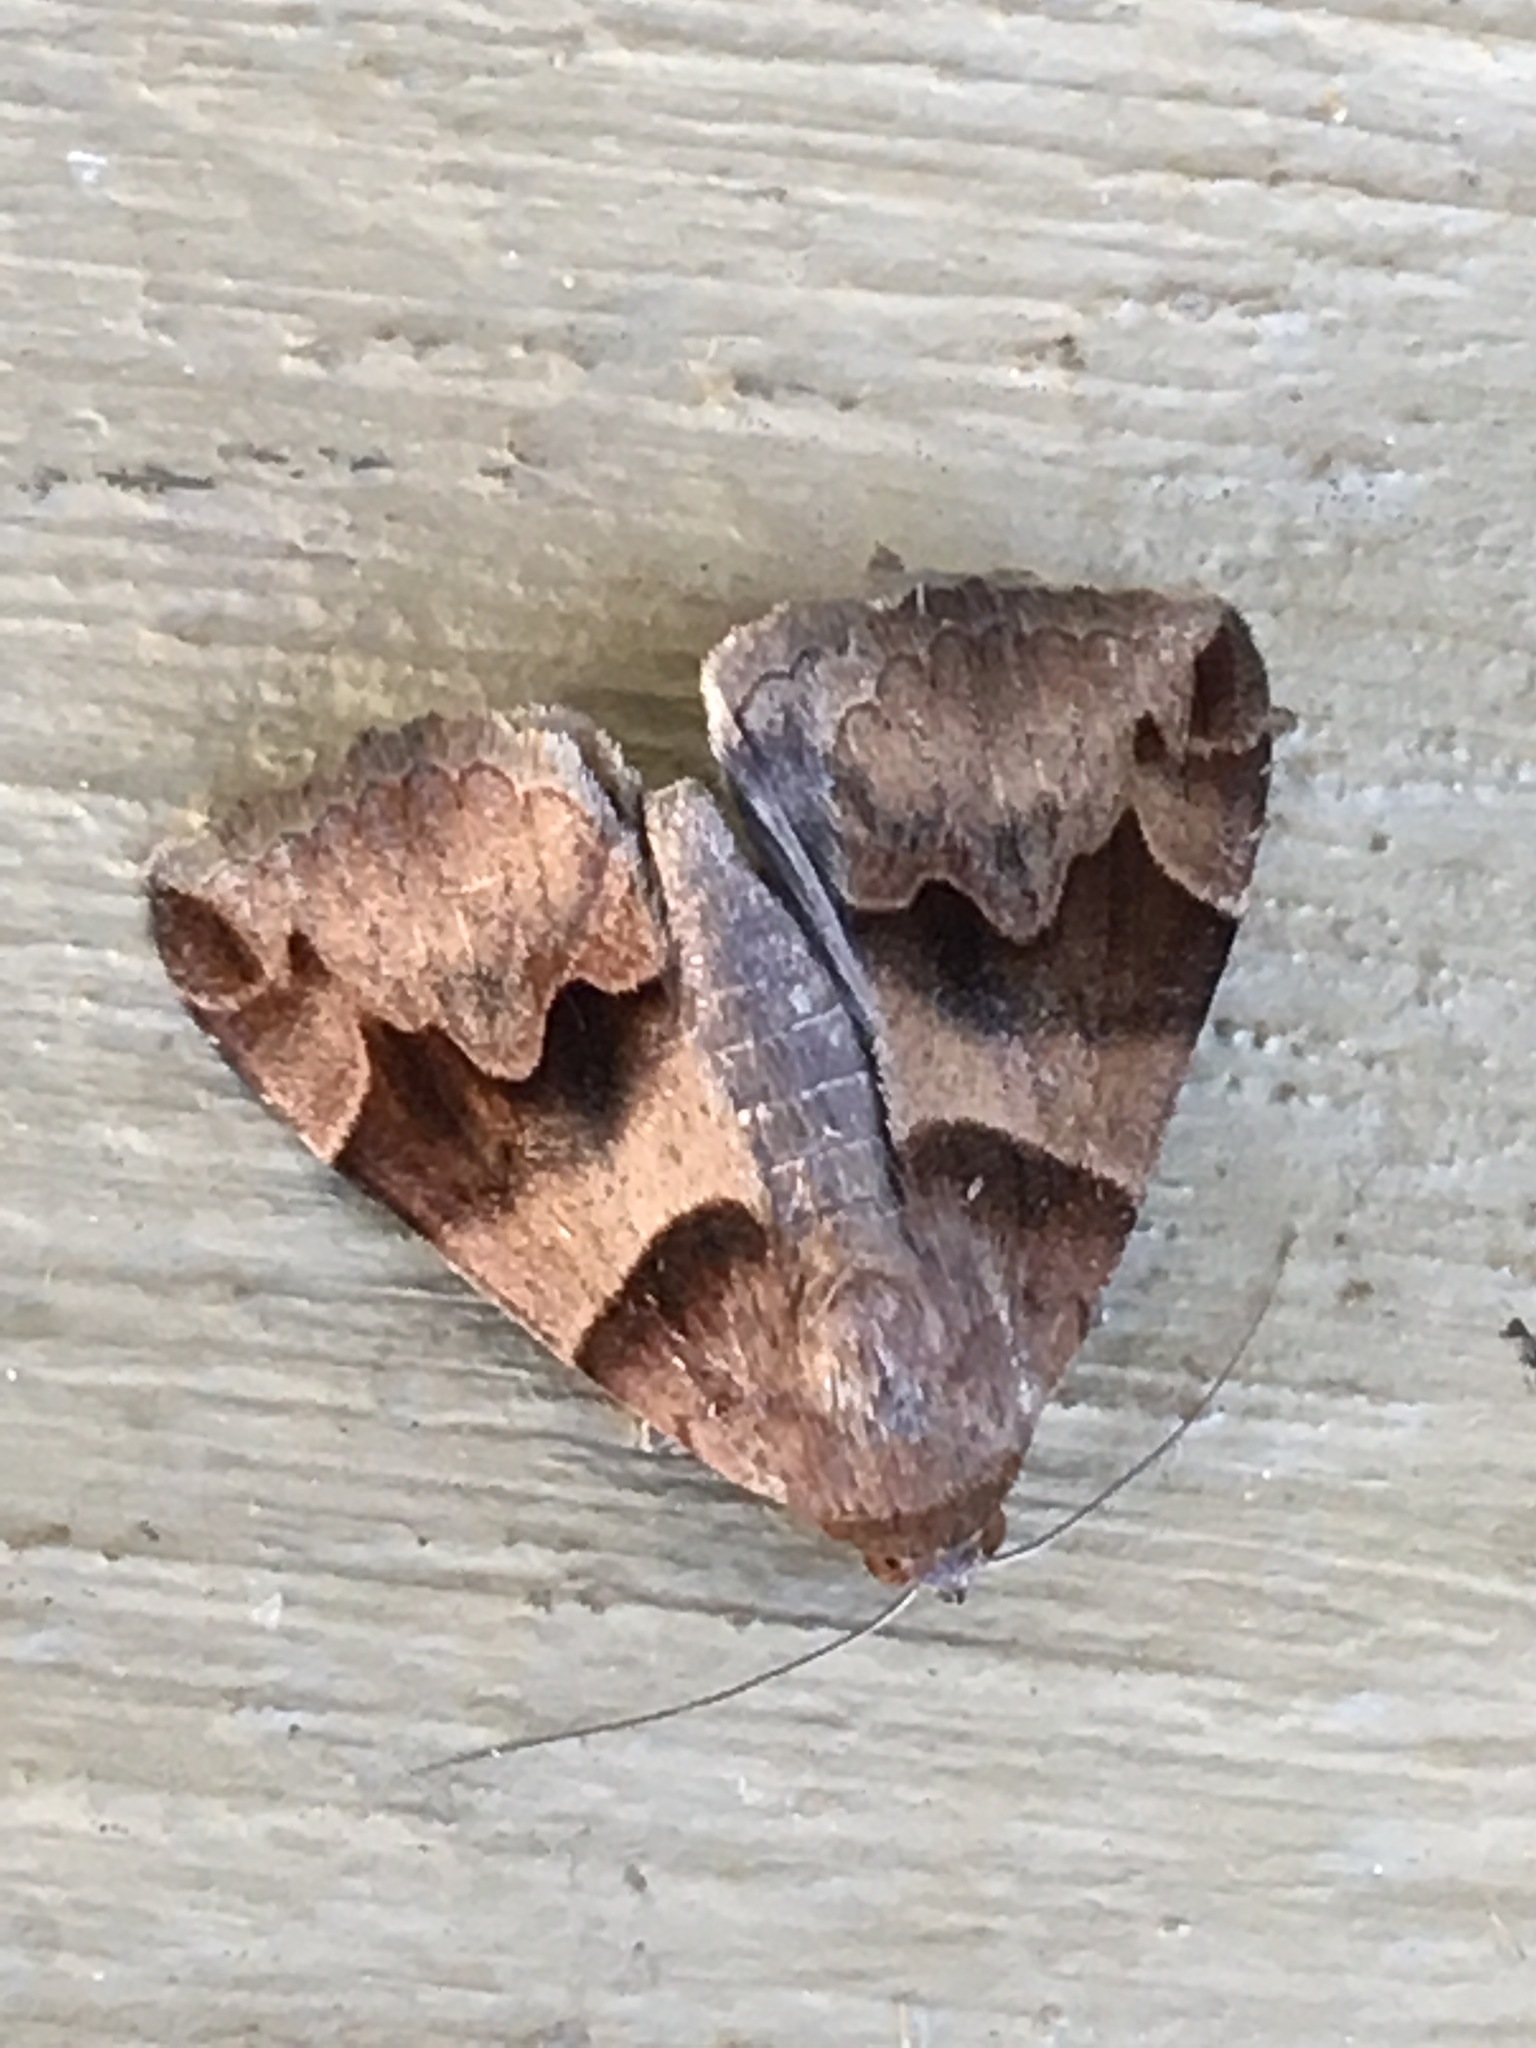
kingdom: Animalia
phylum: Arthropoda
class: Insecta
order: Lepidoptera
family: Erebidae
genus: Dysgonia
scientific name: Dysgonia angularis
